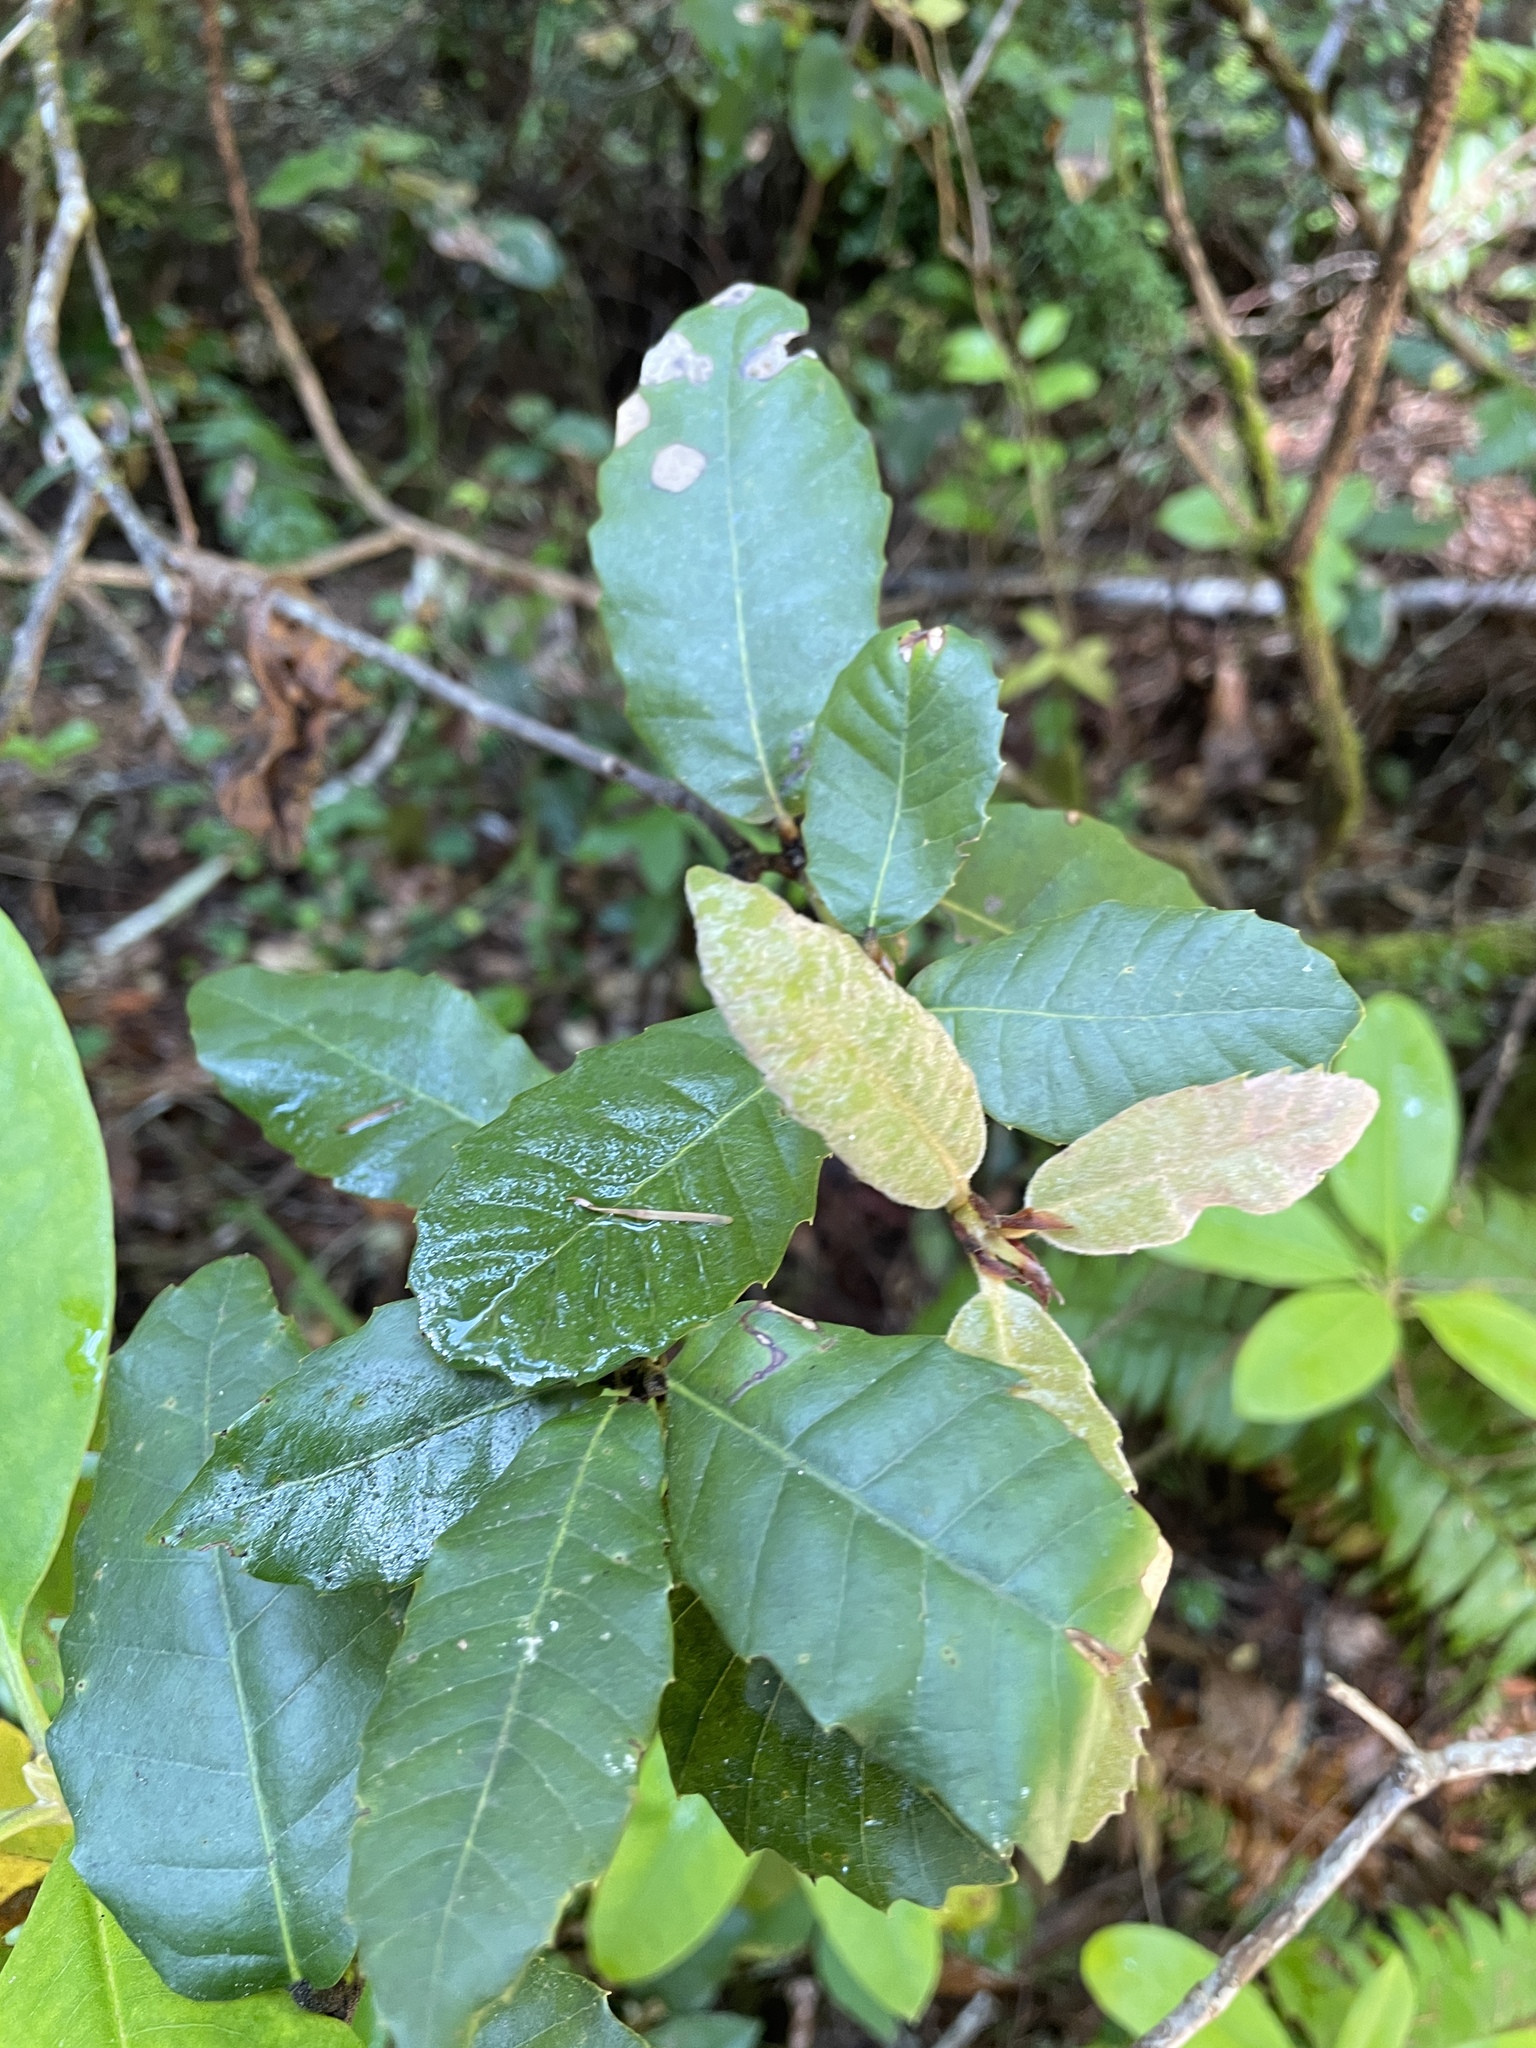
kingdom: Plantae
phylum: Tracheophyta
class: Magnoliopsida
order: Fagales
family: Fagaceae
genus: Notholithocarpus
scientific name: Notholithocarpus densiflorus
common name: Tan bark oak
